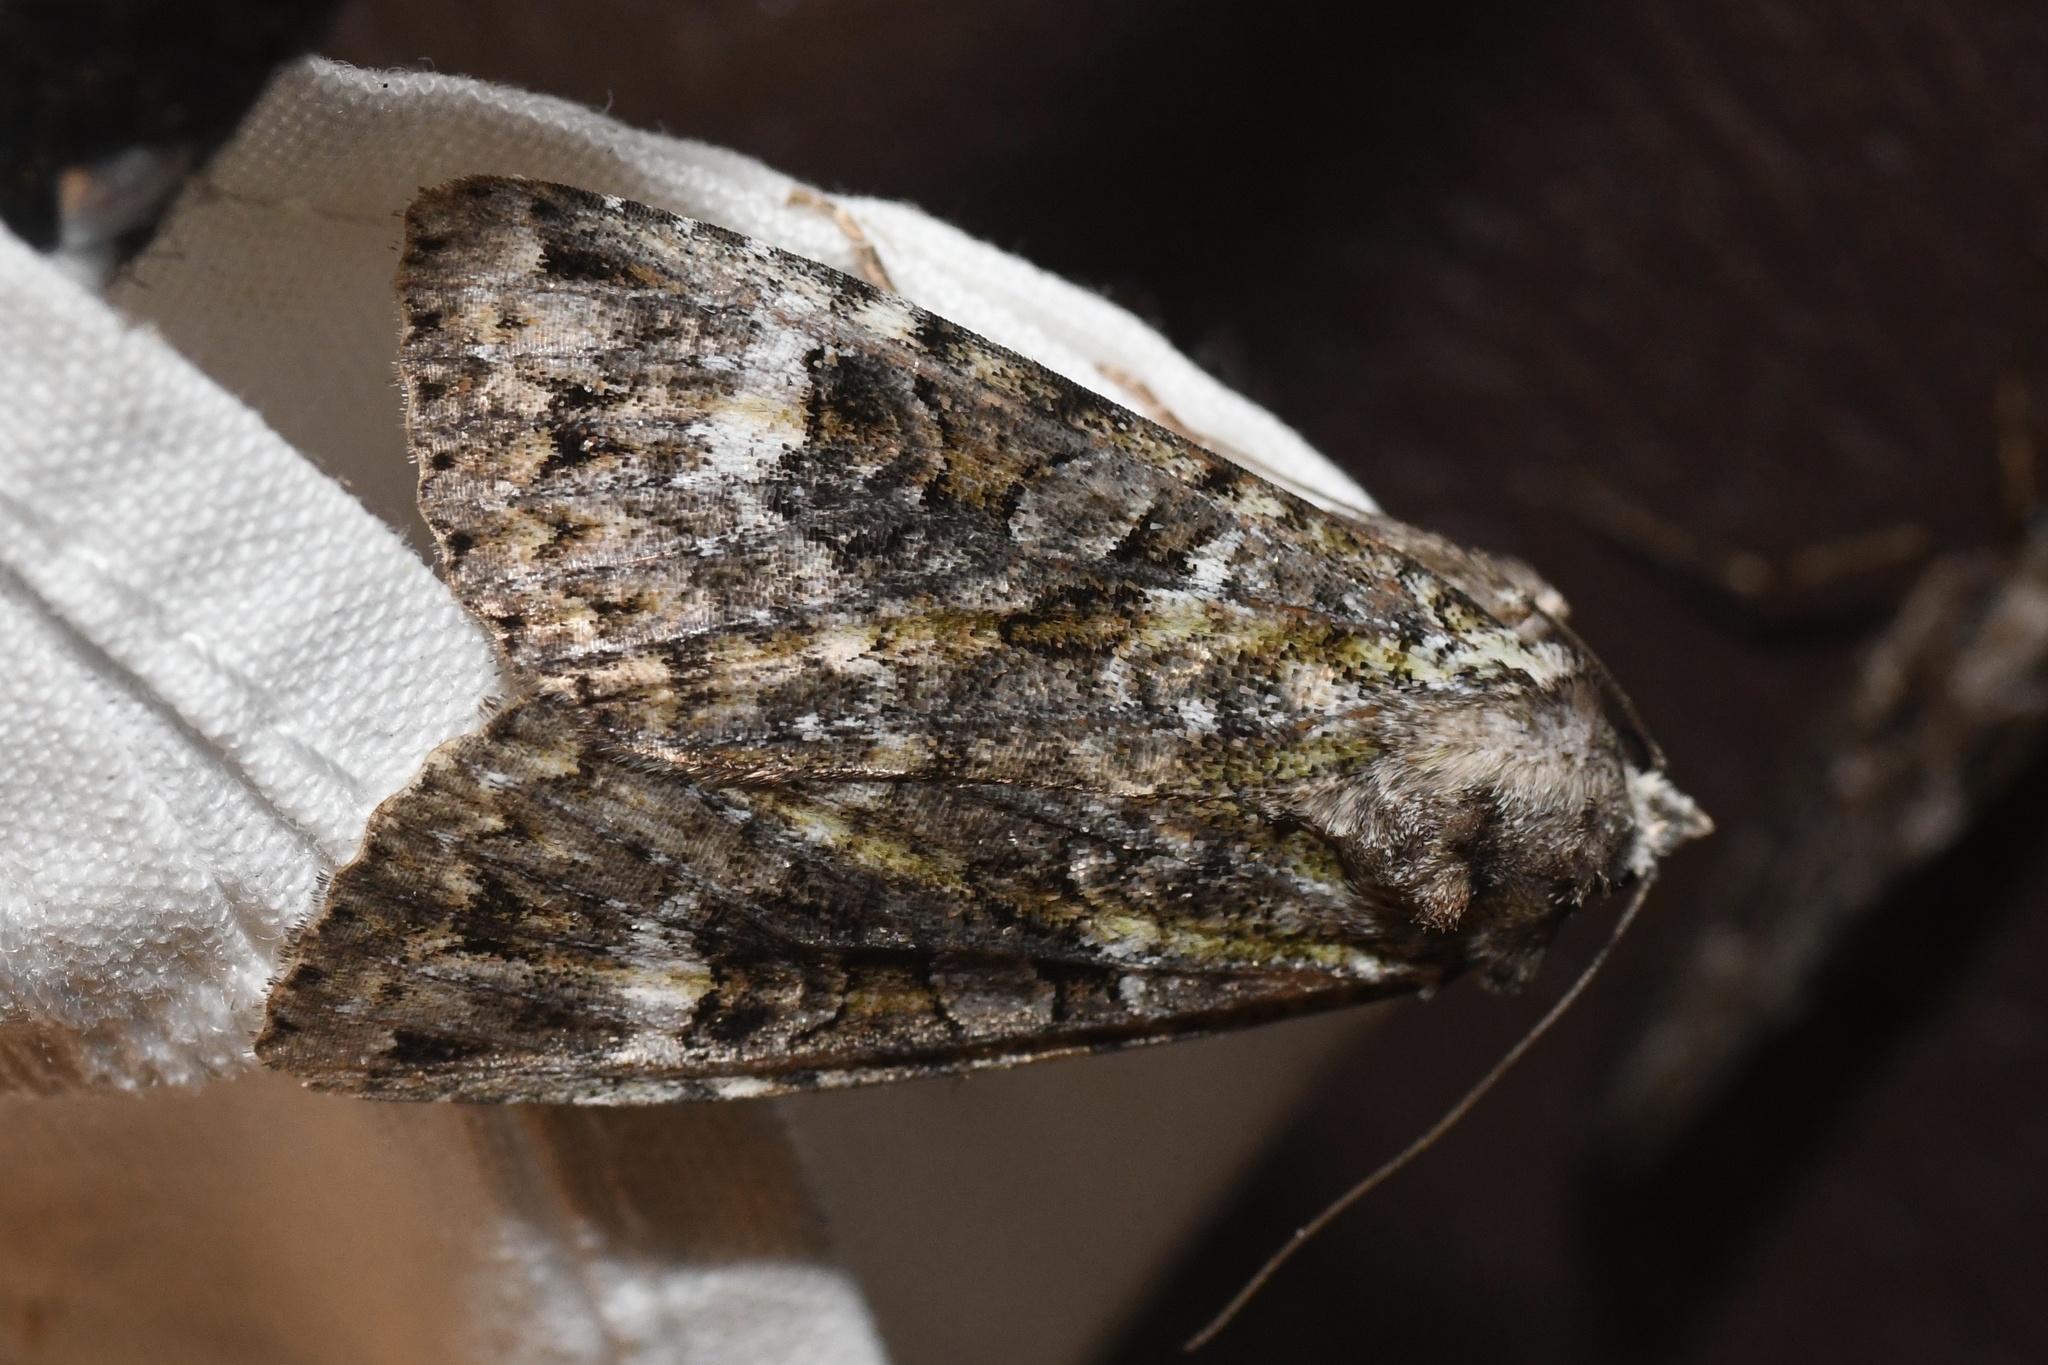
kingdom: Animalia
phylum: Arthropoda
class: Insecta
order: Lepidoptera
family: Noctuidae
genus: Anaplectoides
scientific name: Anaplectoides prasina
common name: Green arches
